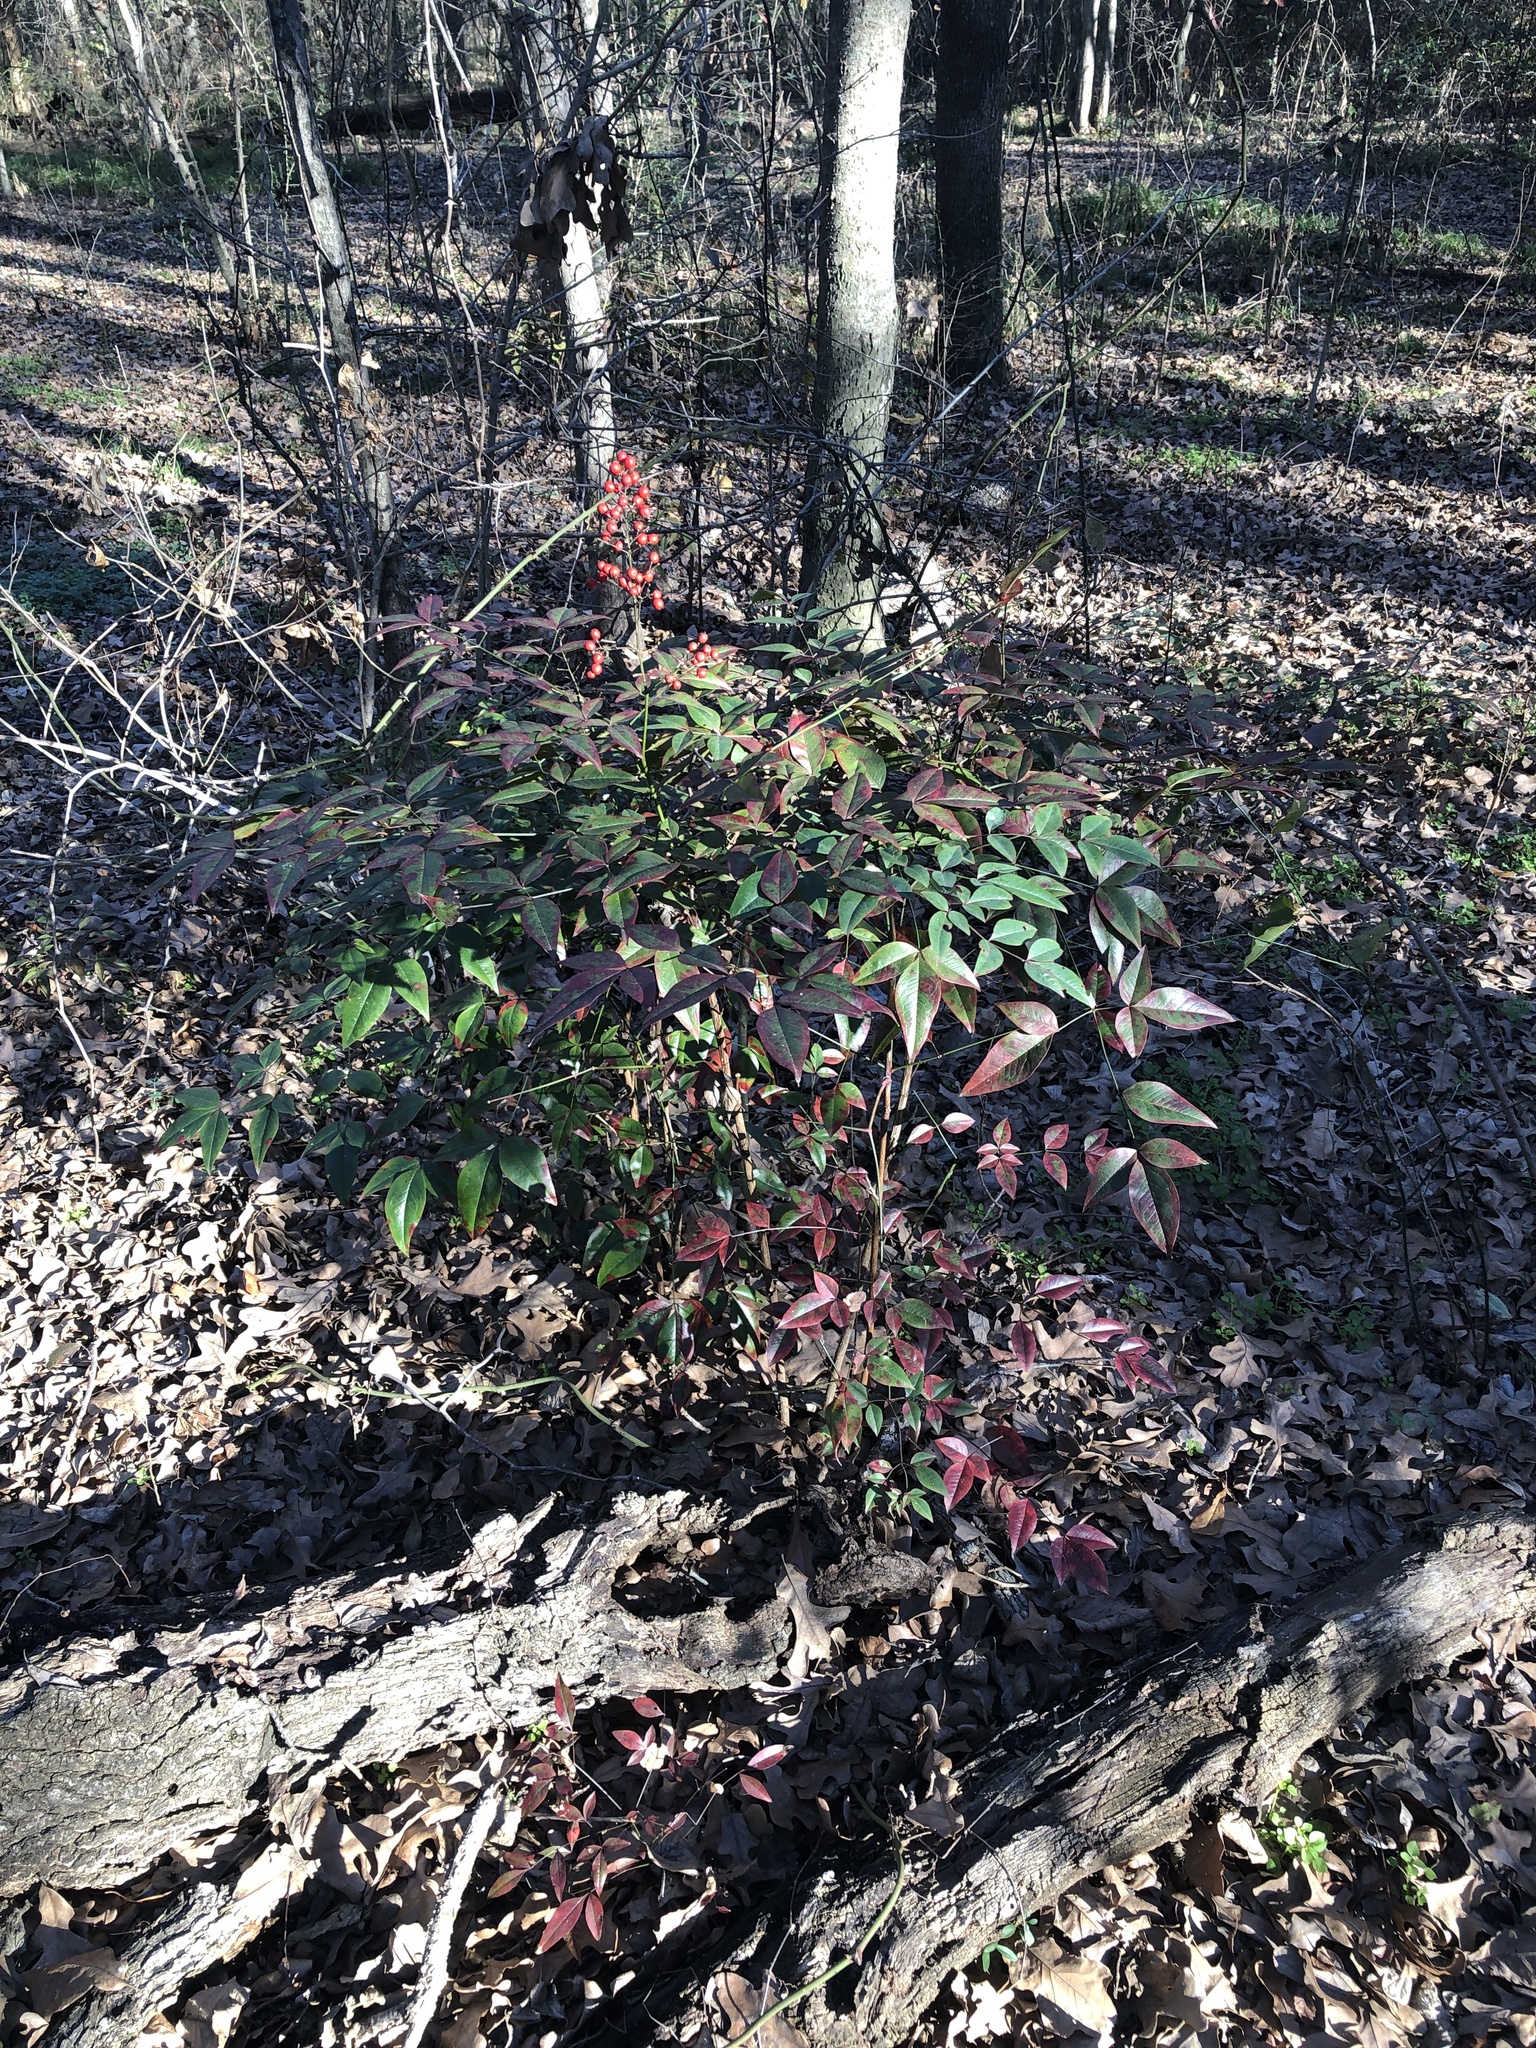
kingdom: Plantae
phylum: Tracheophyta
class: Magnoliopsida
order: Ranunculales
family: Berberidaceae
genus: Nandina
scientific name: Nandina domestica
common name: Sacred bamboo
